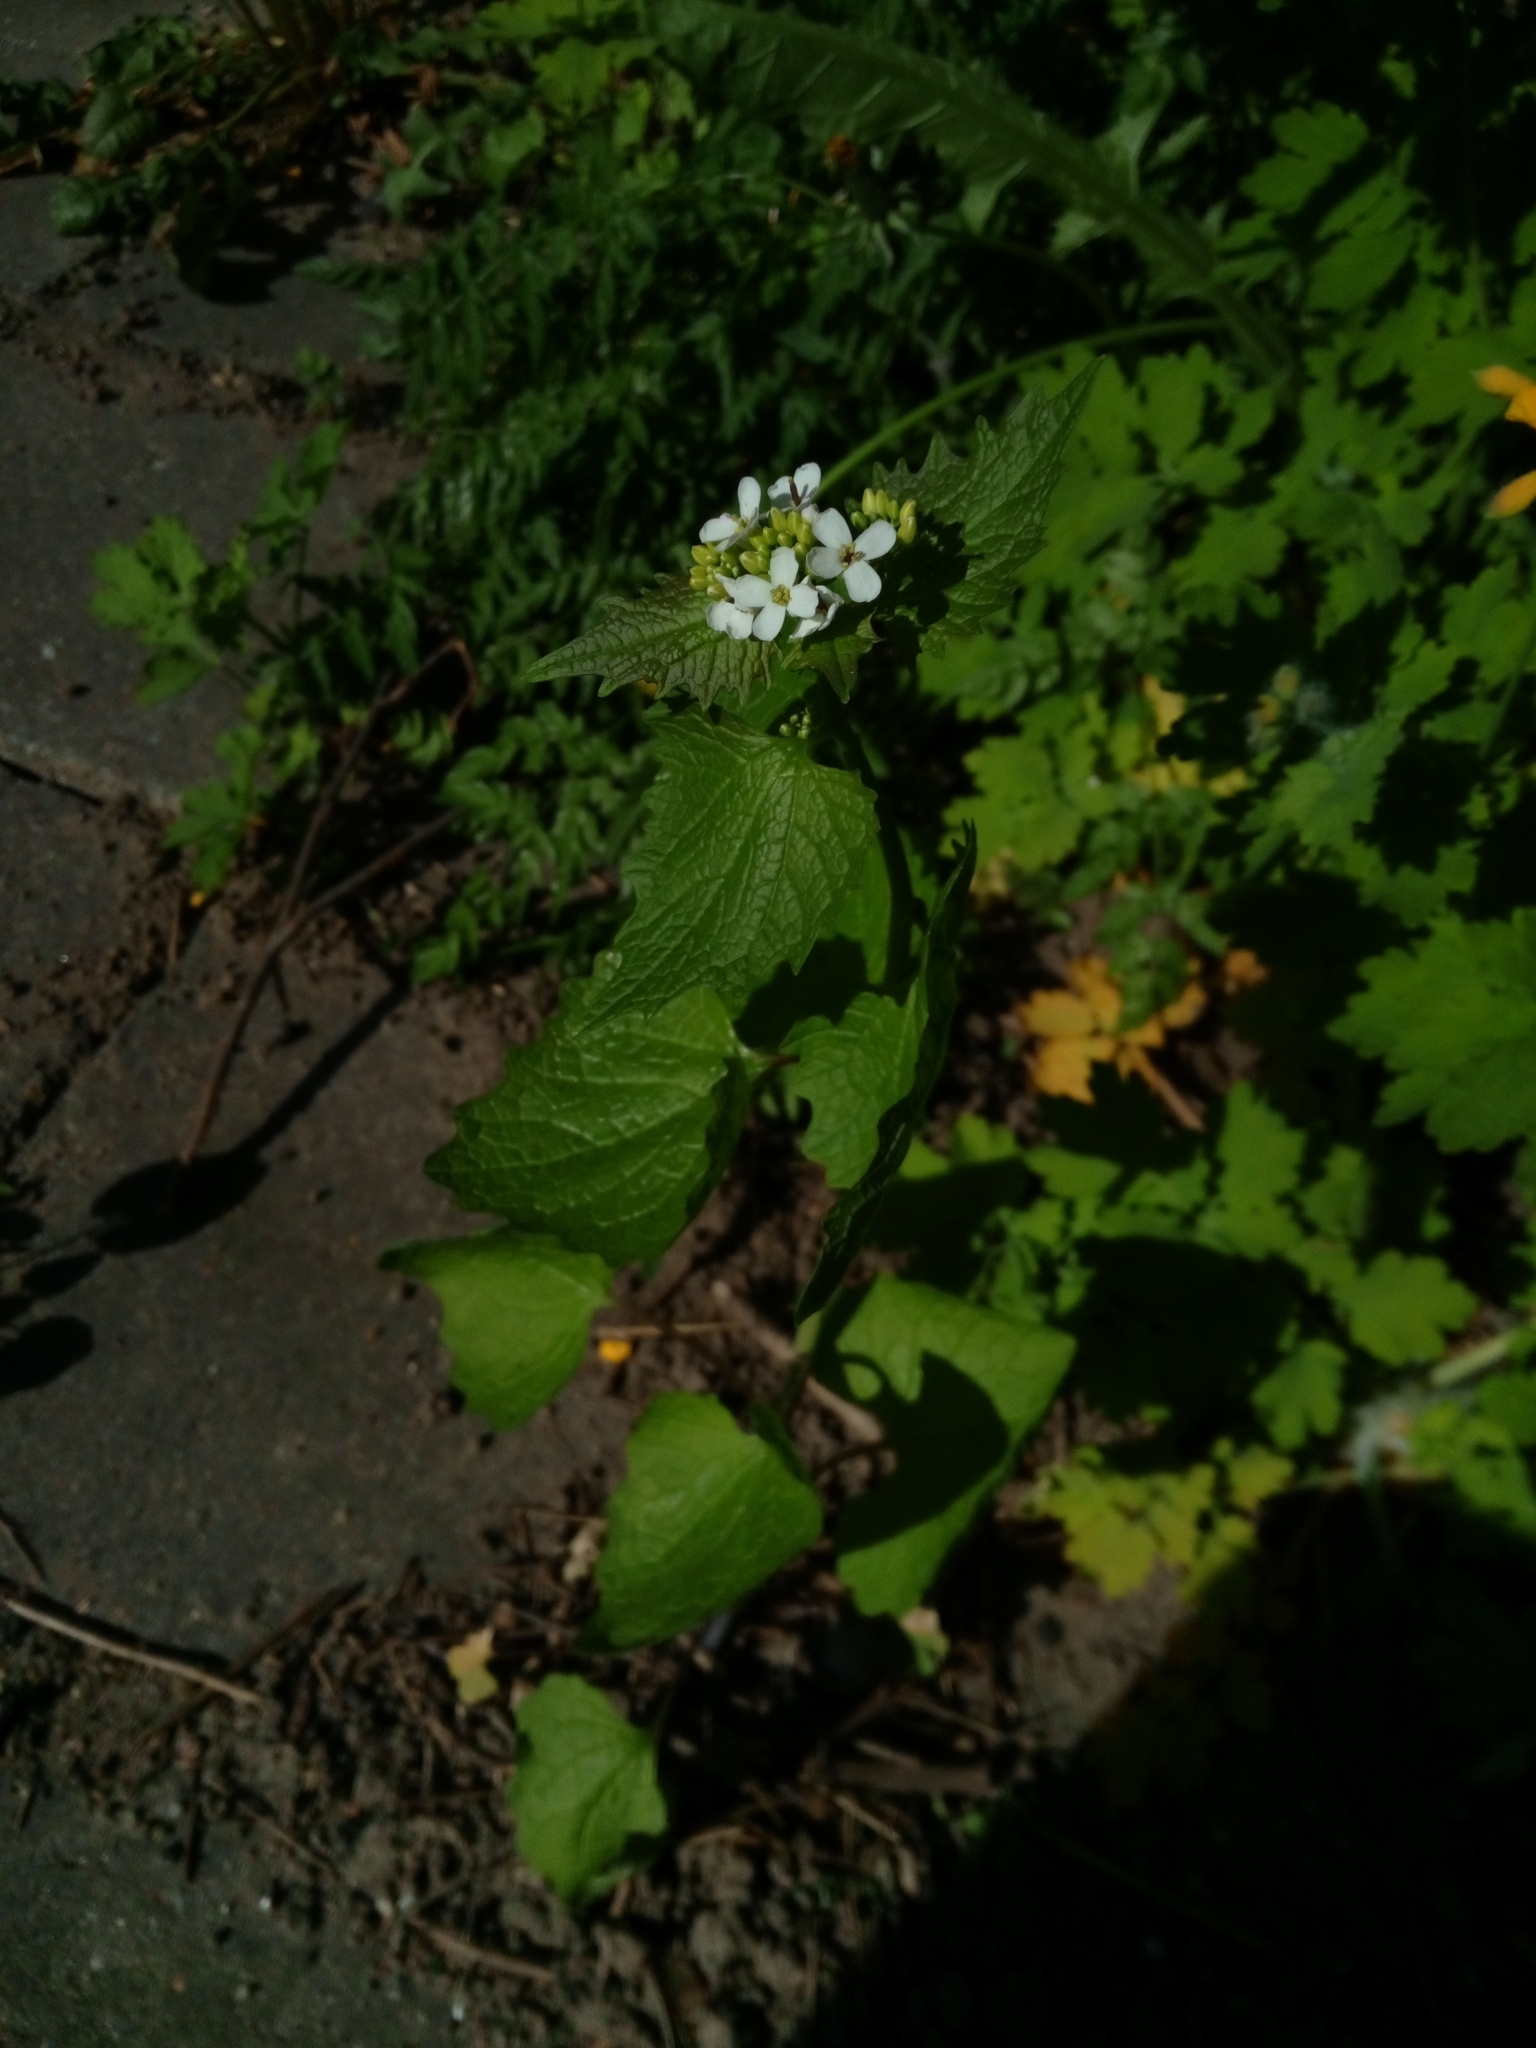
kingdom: Plantae
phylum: Tracheophyta
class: Magnoliopsida
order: Brassicales
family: Brassicaceae
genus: Alliaria
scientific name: Alliaria petiolata
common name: Garlic mustard
